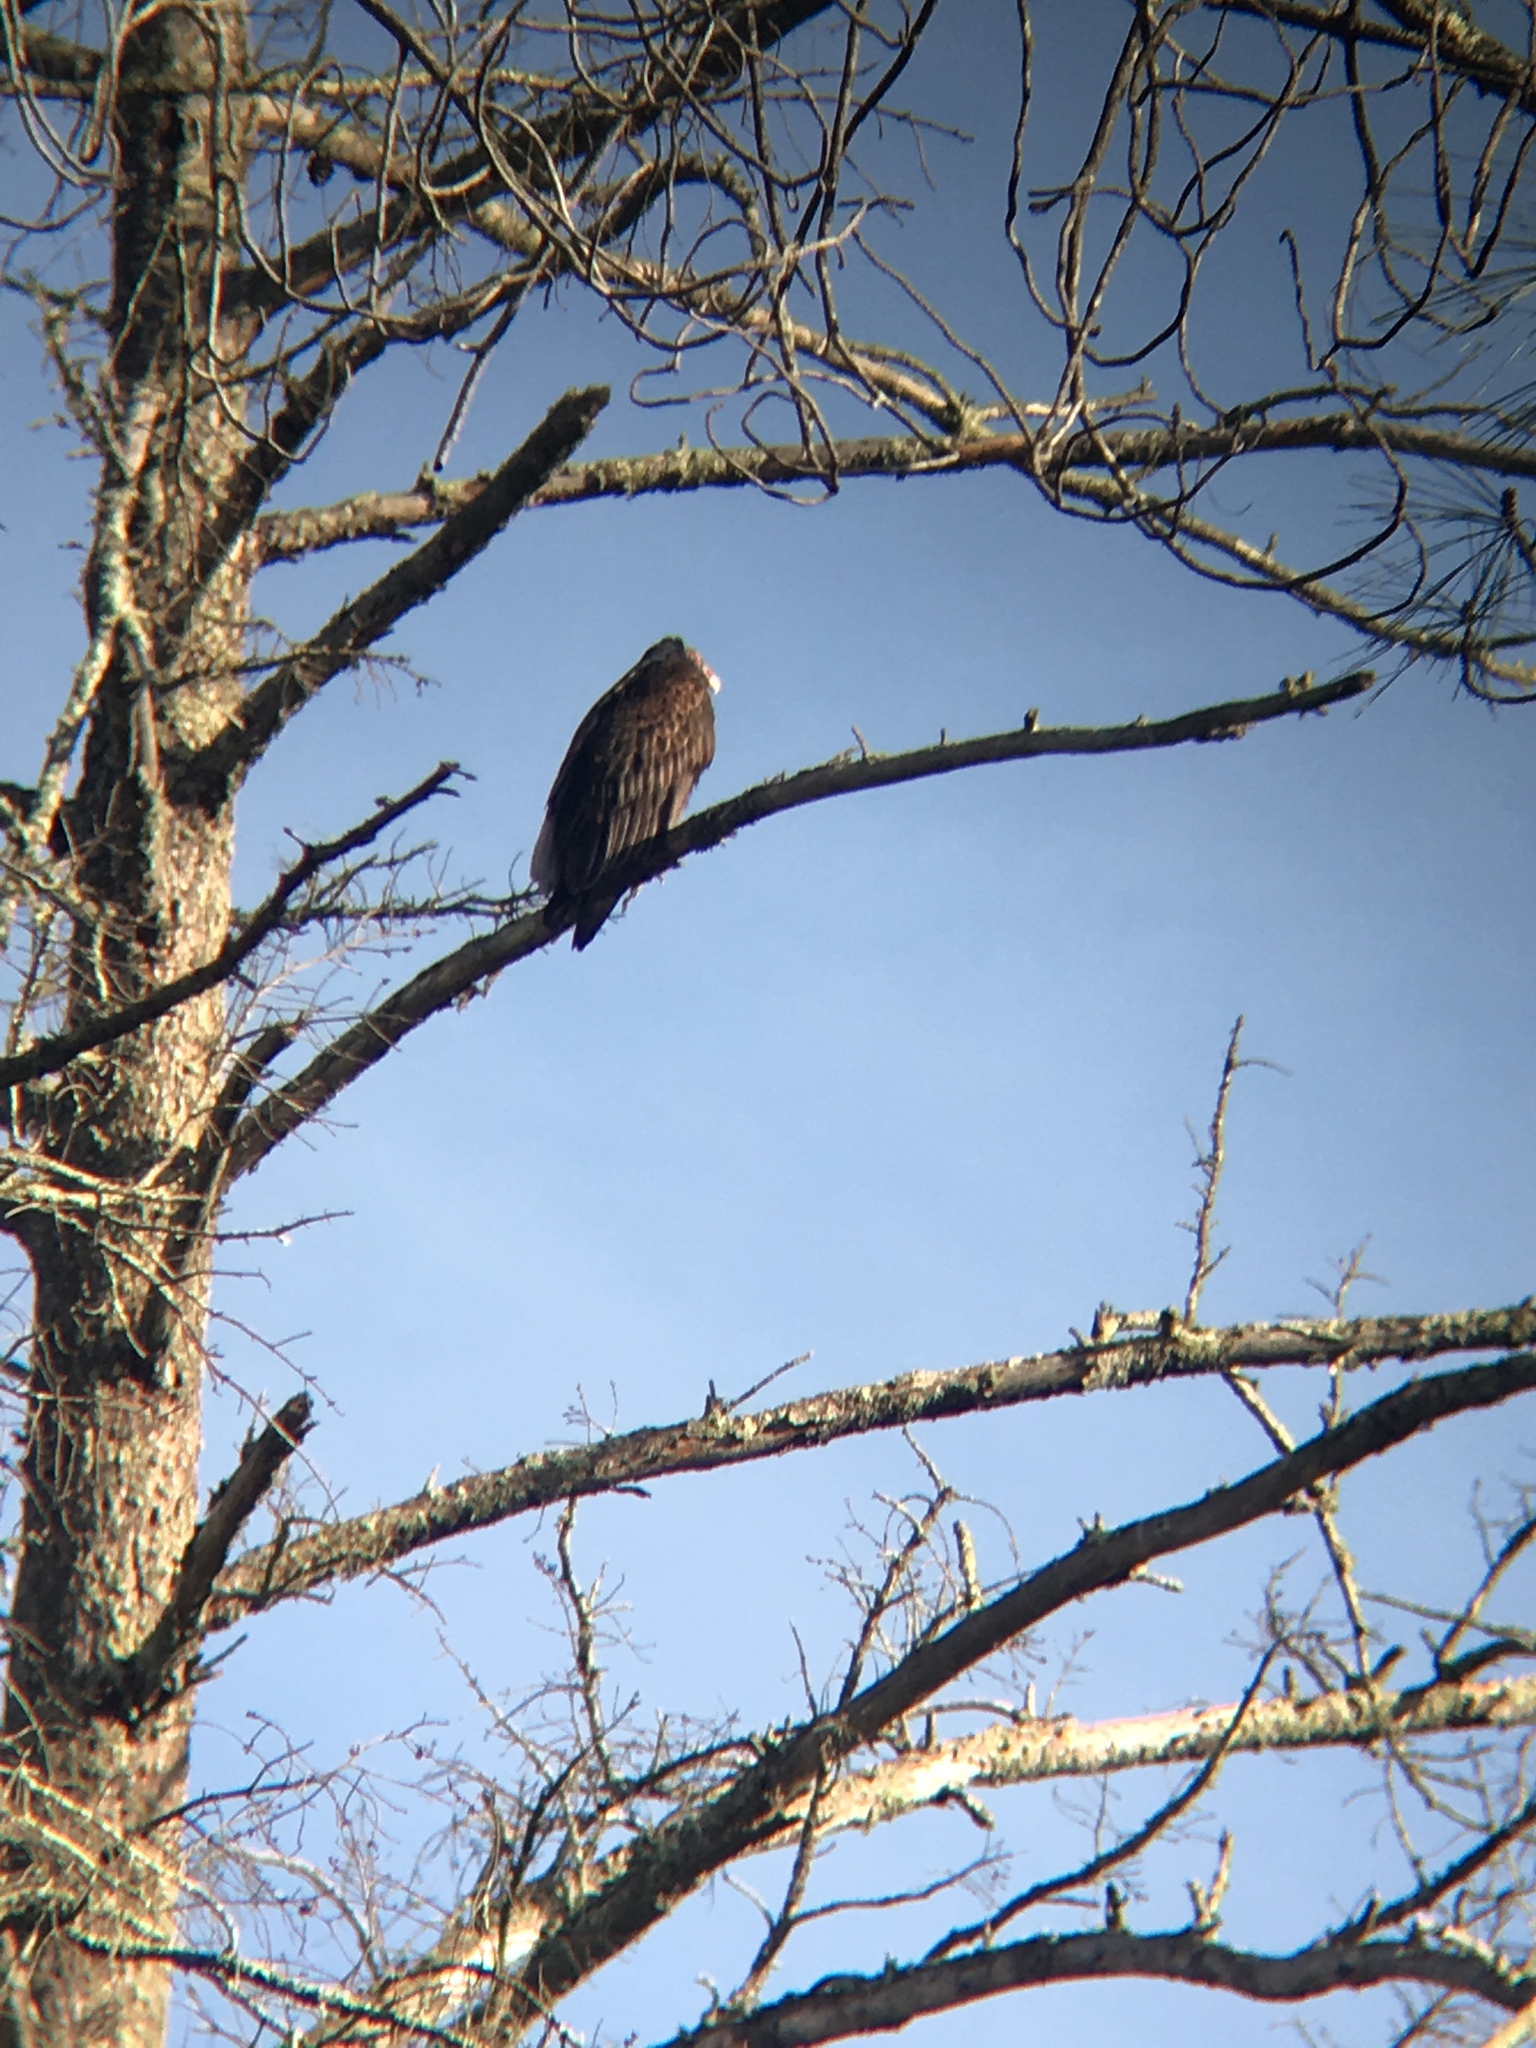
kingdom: Animalia
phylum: Chordata
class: Aves
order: Accipitriformes
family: Cathartidae
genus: Cathartes
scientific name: Cathartes aura
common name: Turkey vulture
